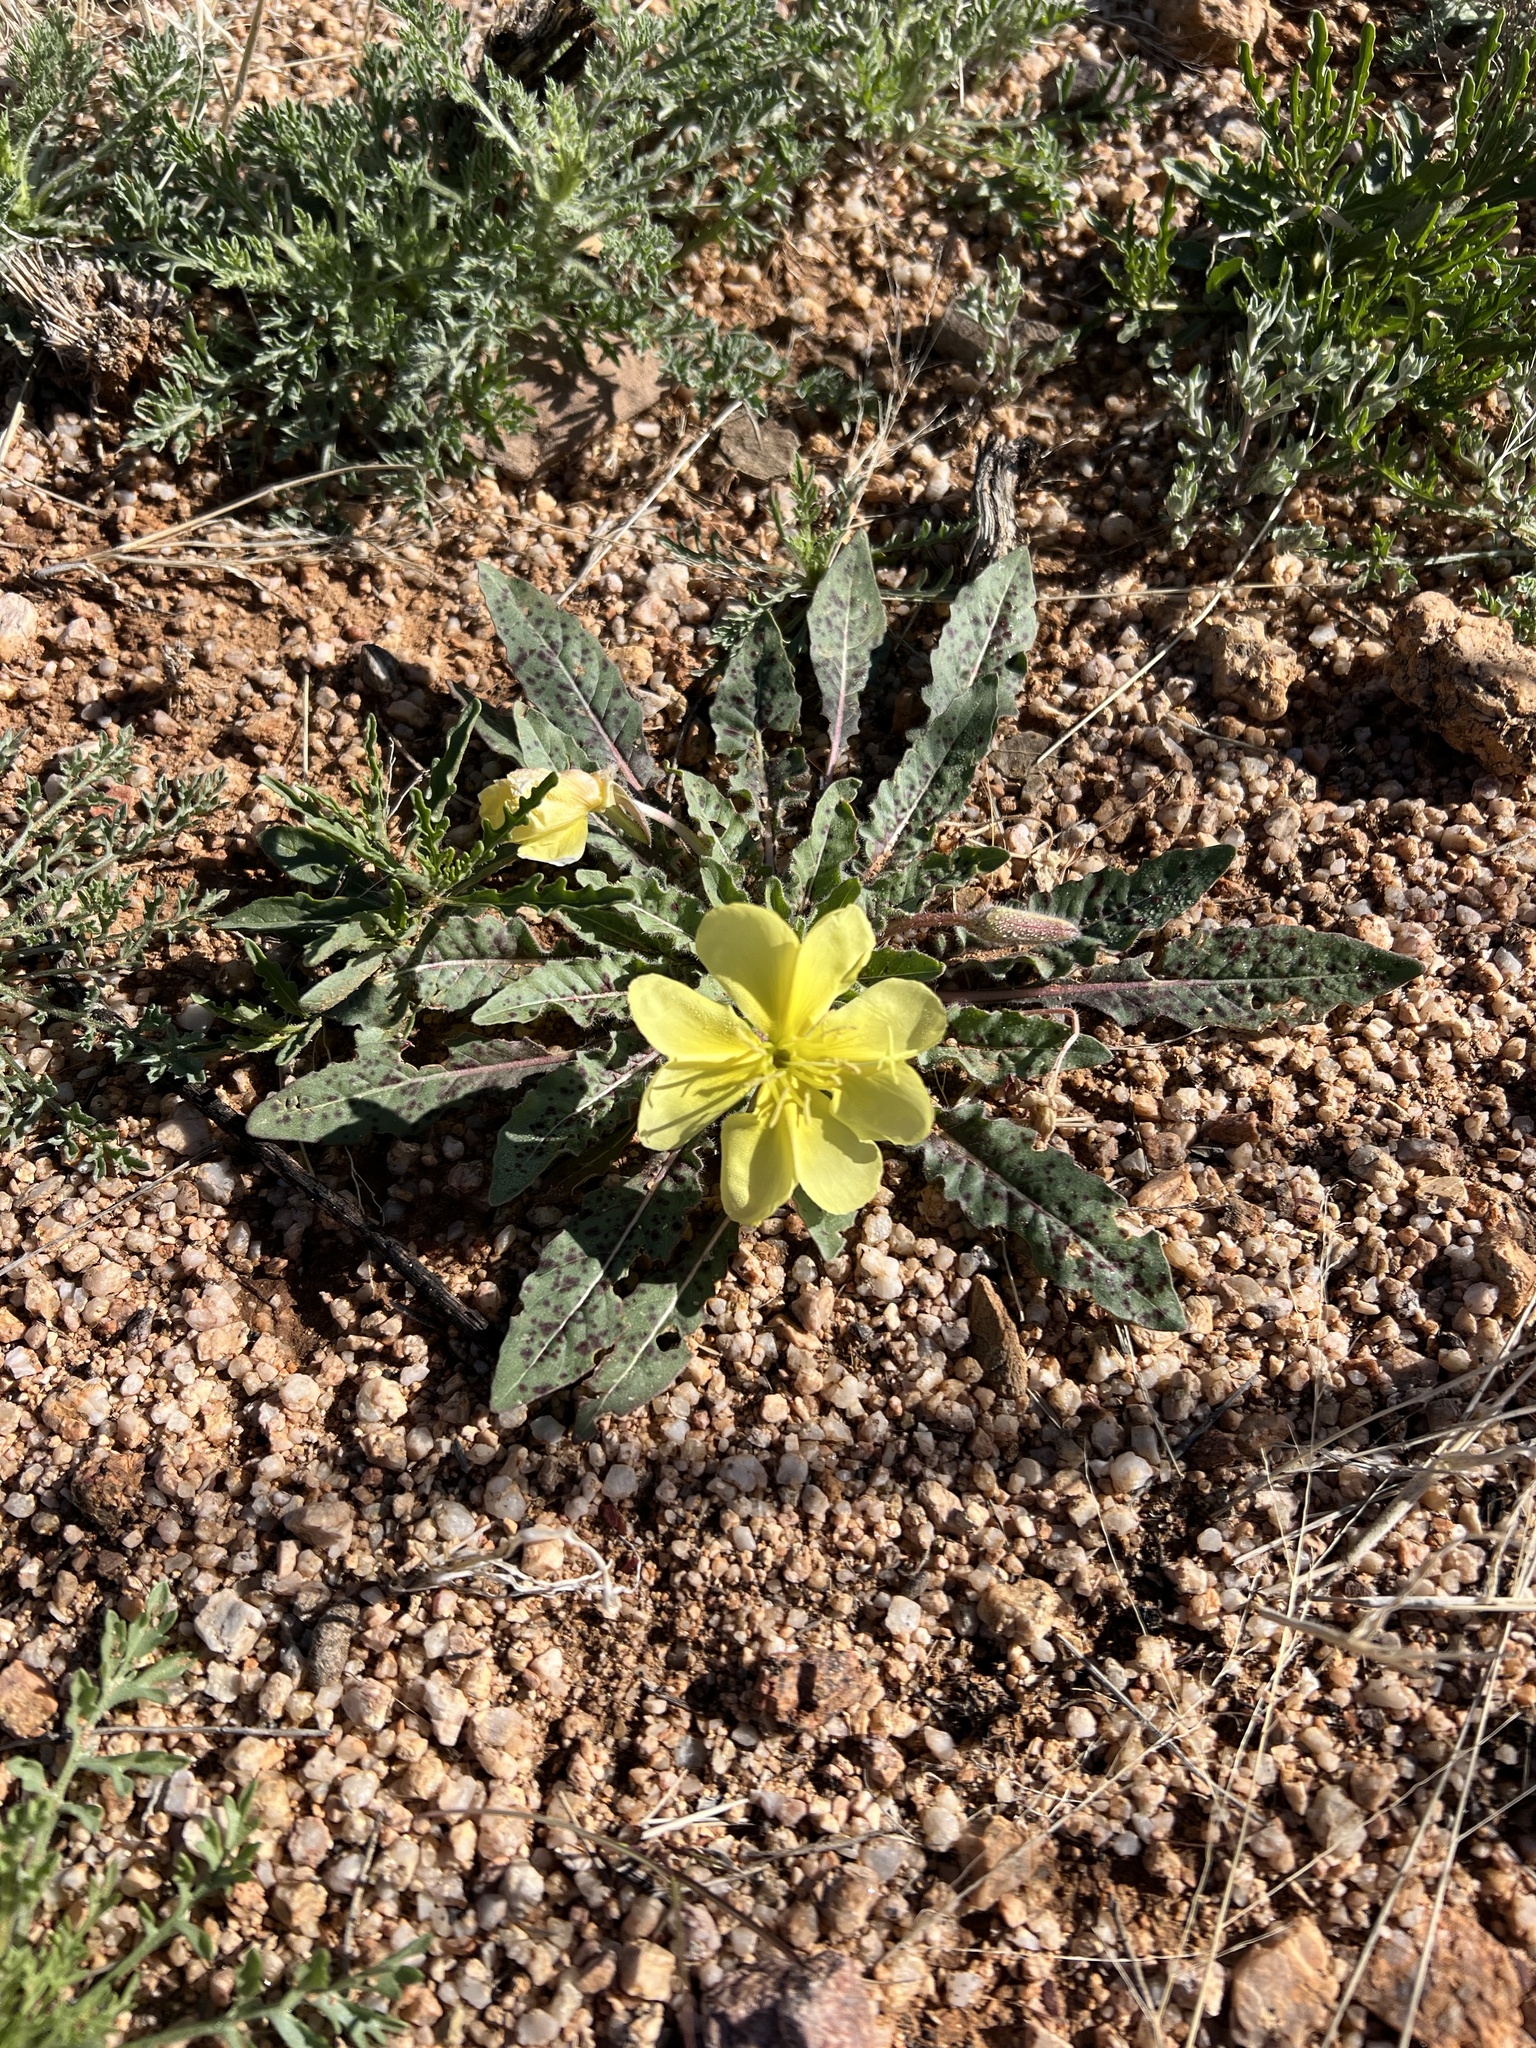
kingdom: Plantae
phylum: Tracheophyta
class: Magnoliopsida
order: Myrtales
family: Onagraceae
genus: Oenothera
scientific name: Oenothera primiveris
